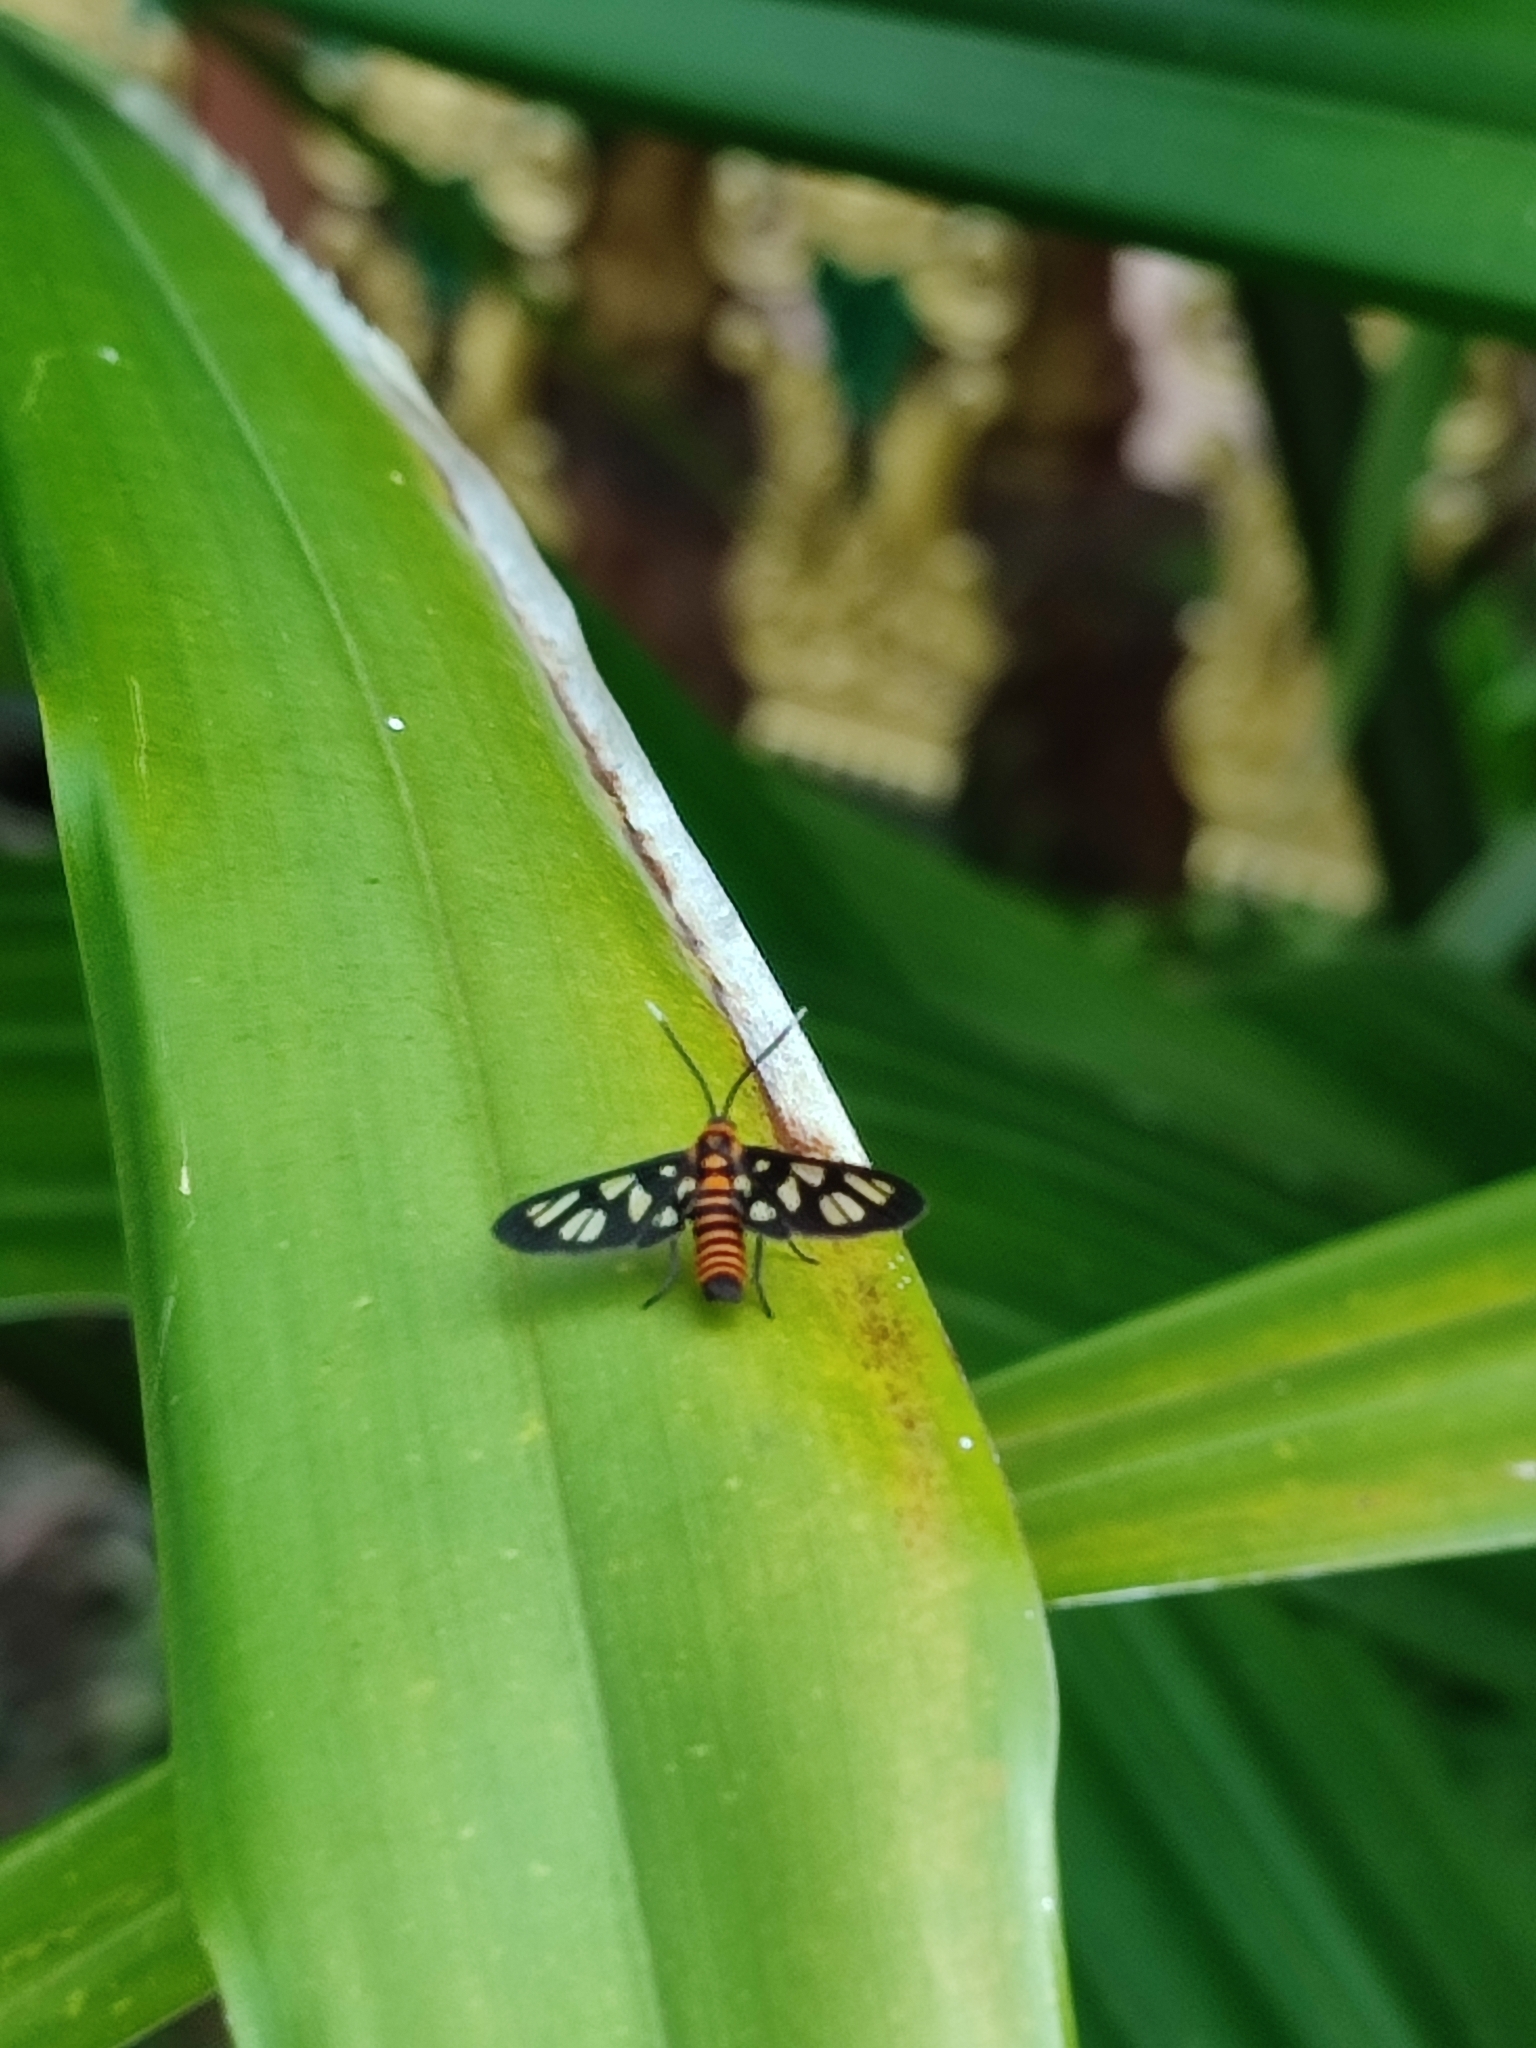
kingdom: Animalia
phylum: Arthropoda
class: Insecta
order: Lepidoptera
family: Erebidae
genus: Amata
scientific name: Amata huebneri
